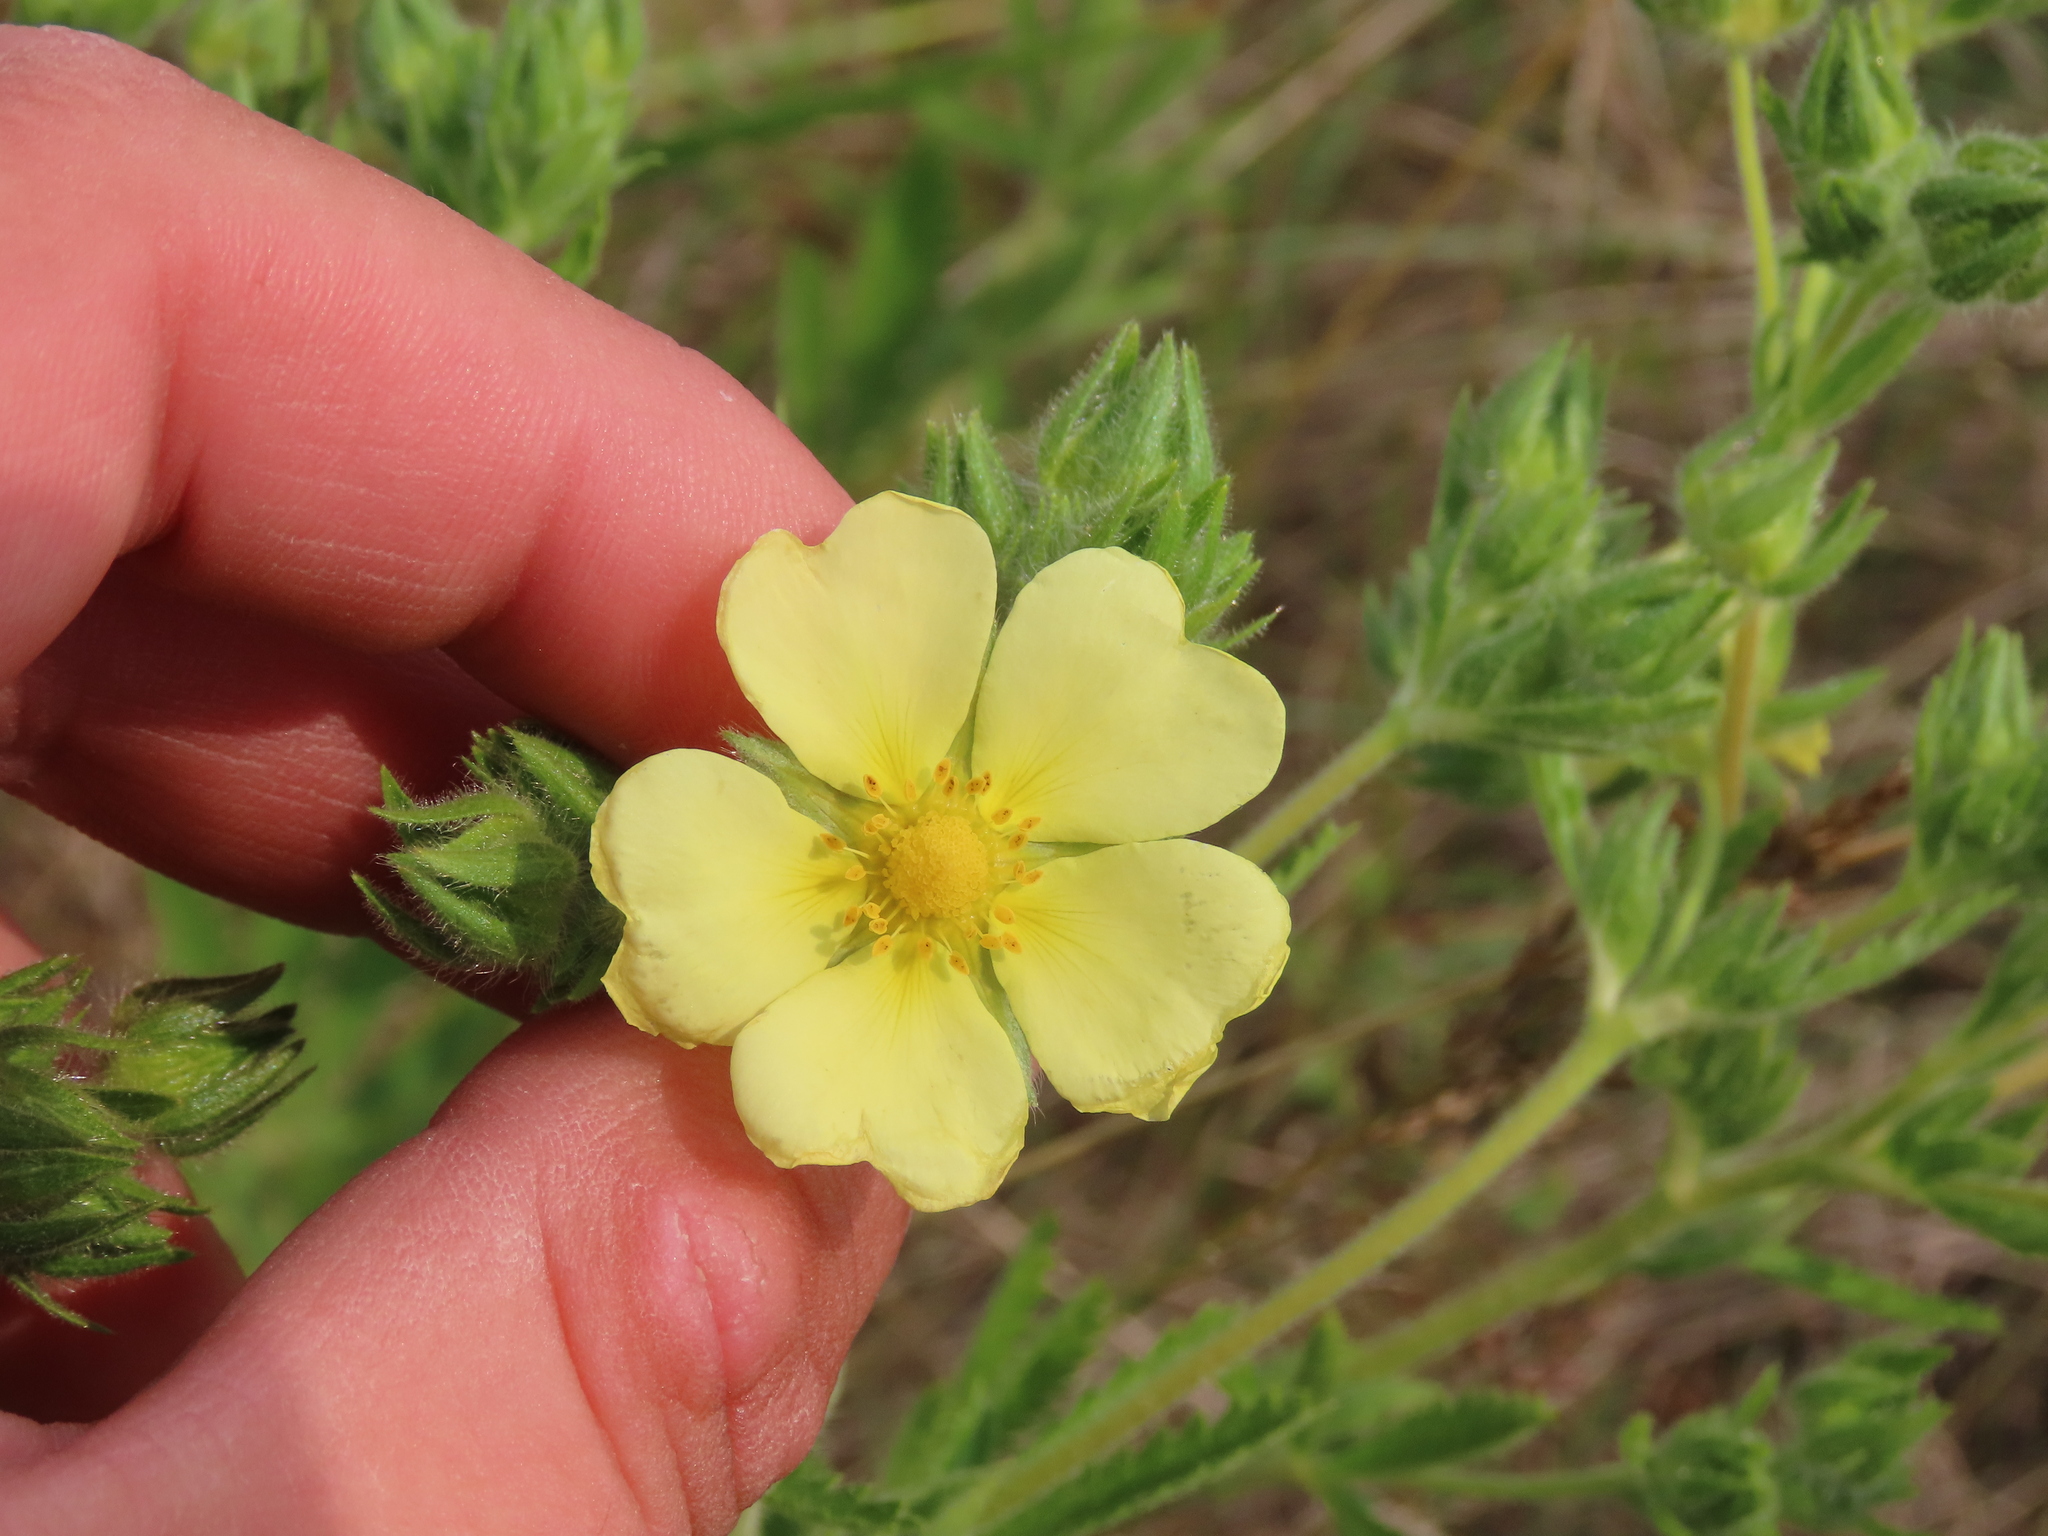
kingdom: Plantae
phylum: Tracheophyta
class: Magnoliopsida
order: Rosales
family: Rosaceae
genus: Potentilla
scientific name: Potentilla recta
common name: Sulphur cinquefoil
